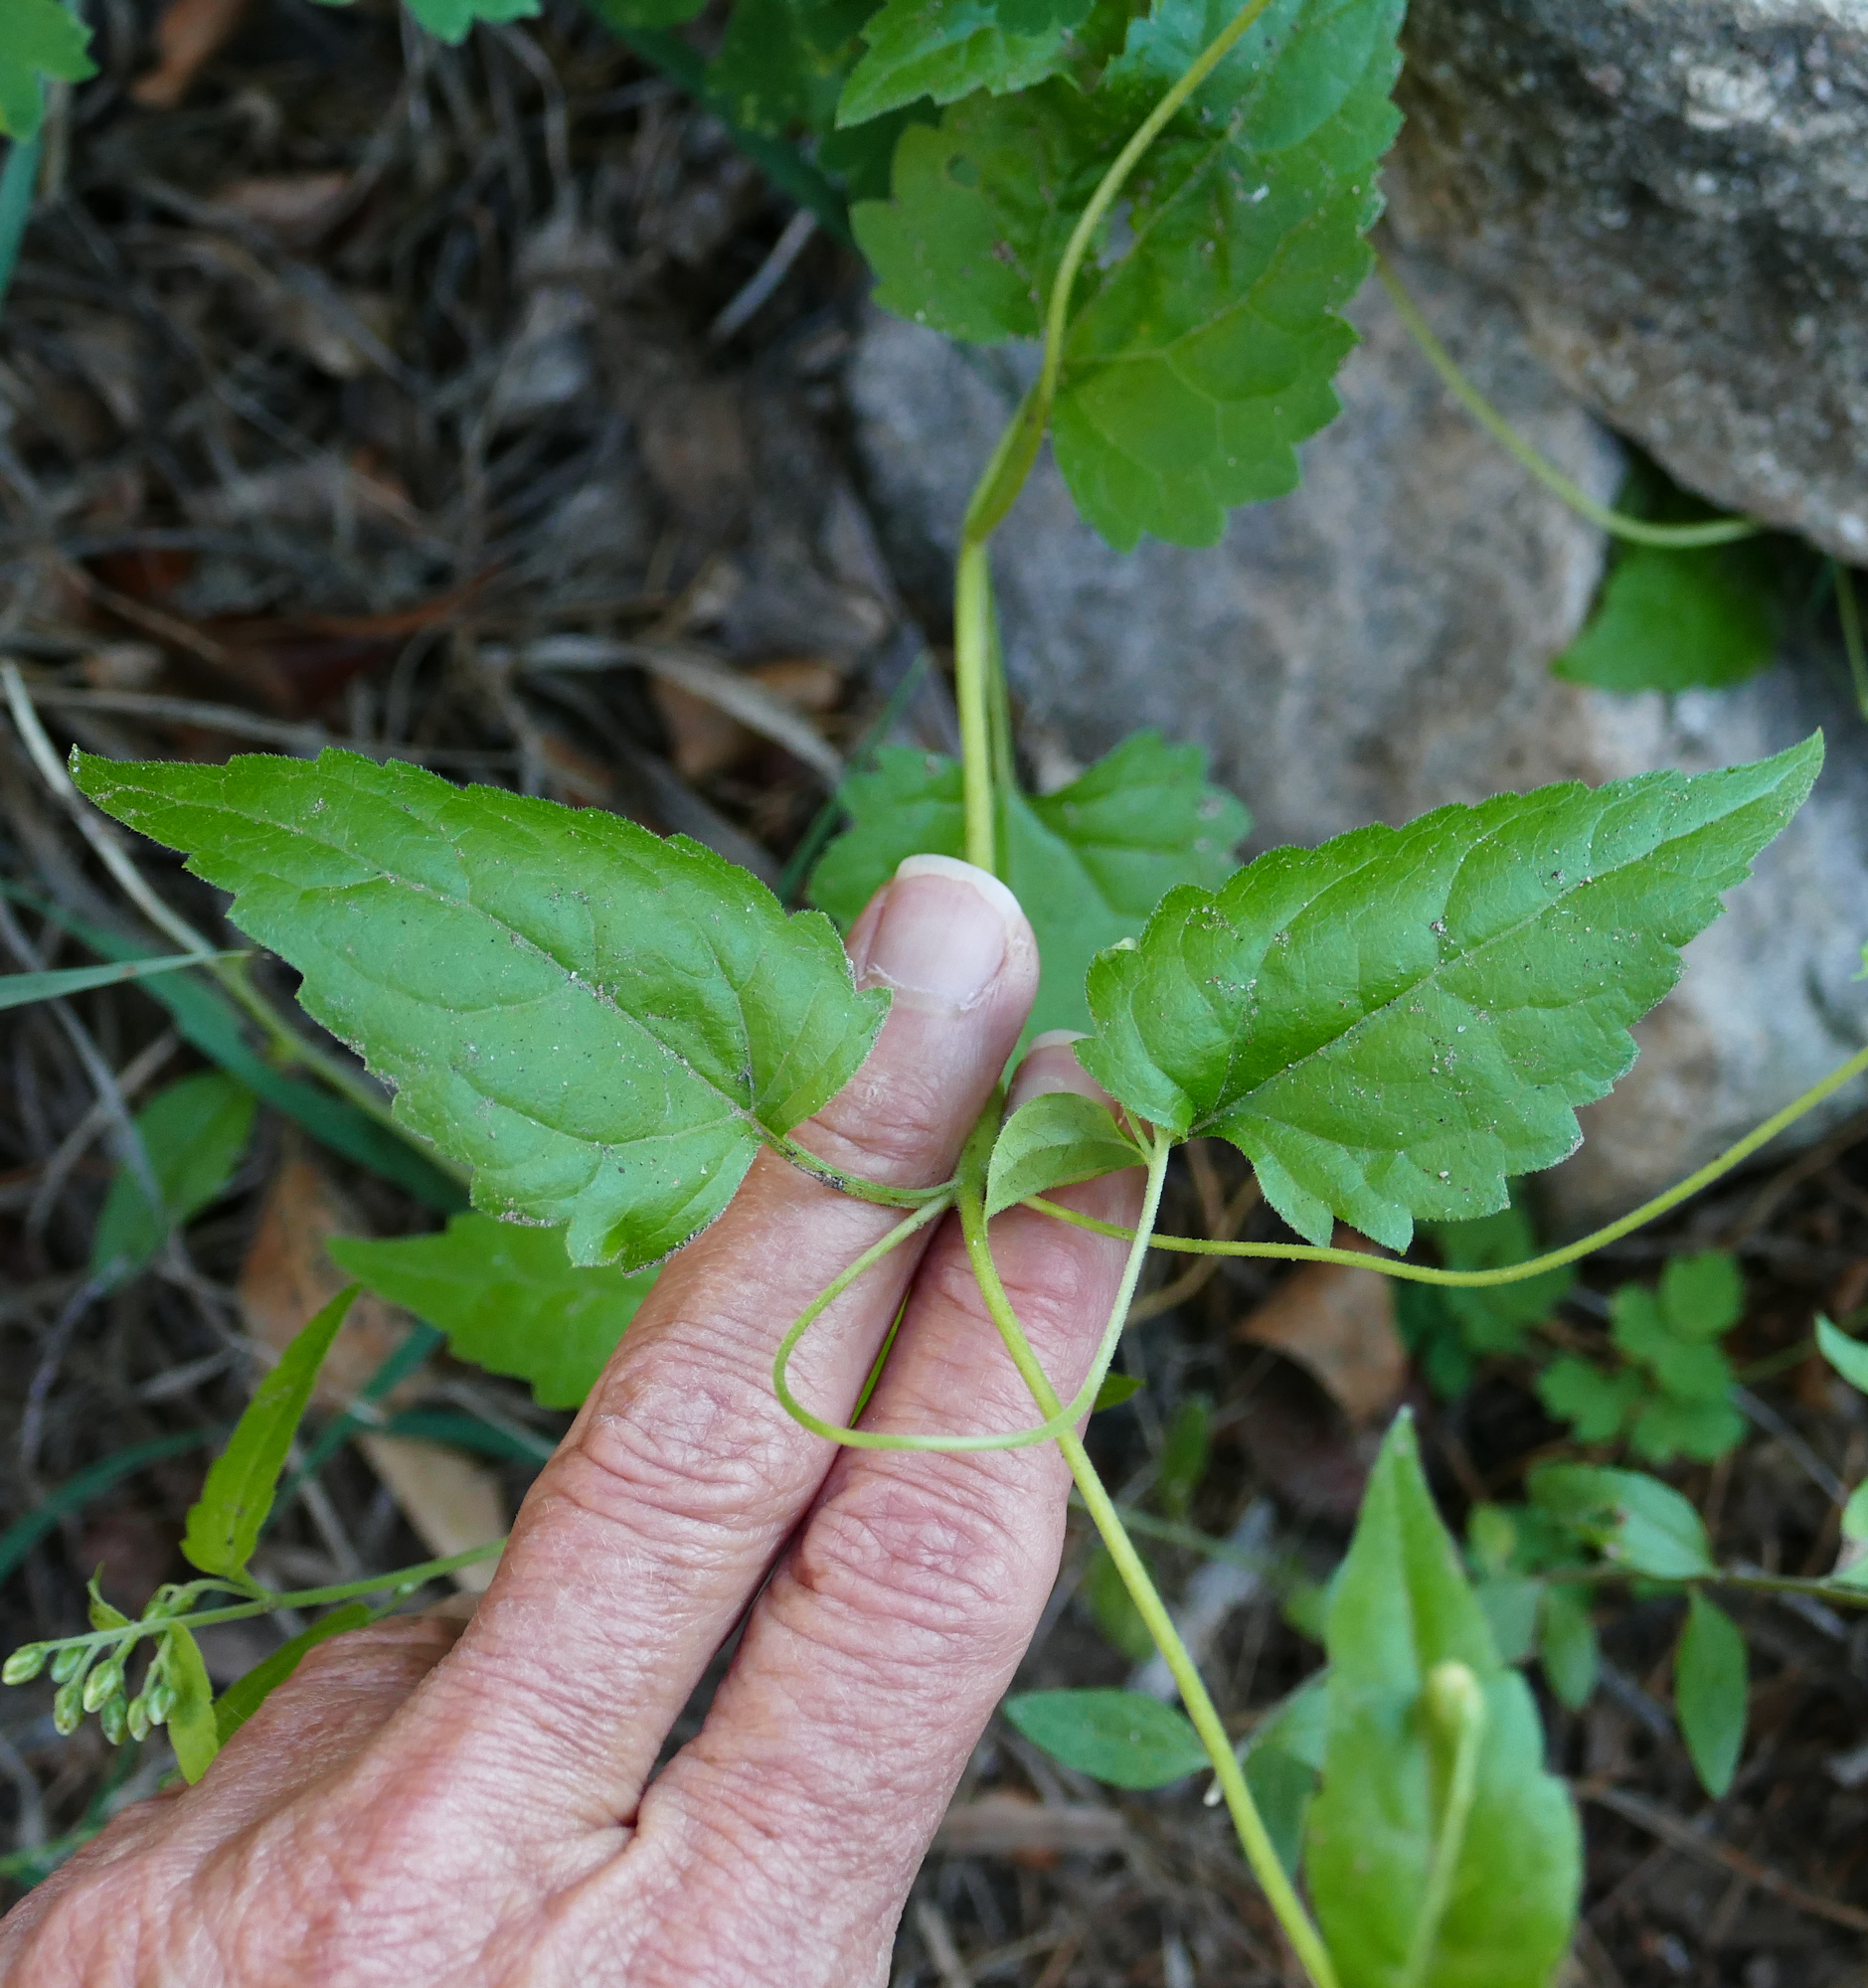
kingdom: Plantae
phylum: Tracheophyta
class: Magnoliopsida
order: Asterales
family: Asteraceae
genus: Brickelliastrum
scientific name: Brickelliastrum fendleri
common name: Fendler's-brickellbush
